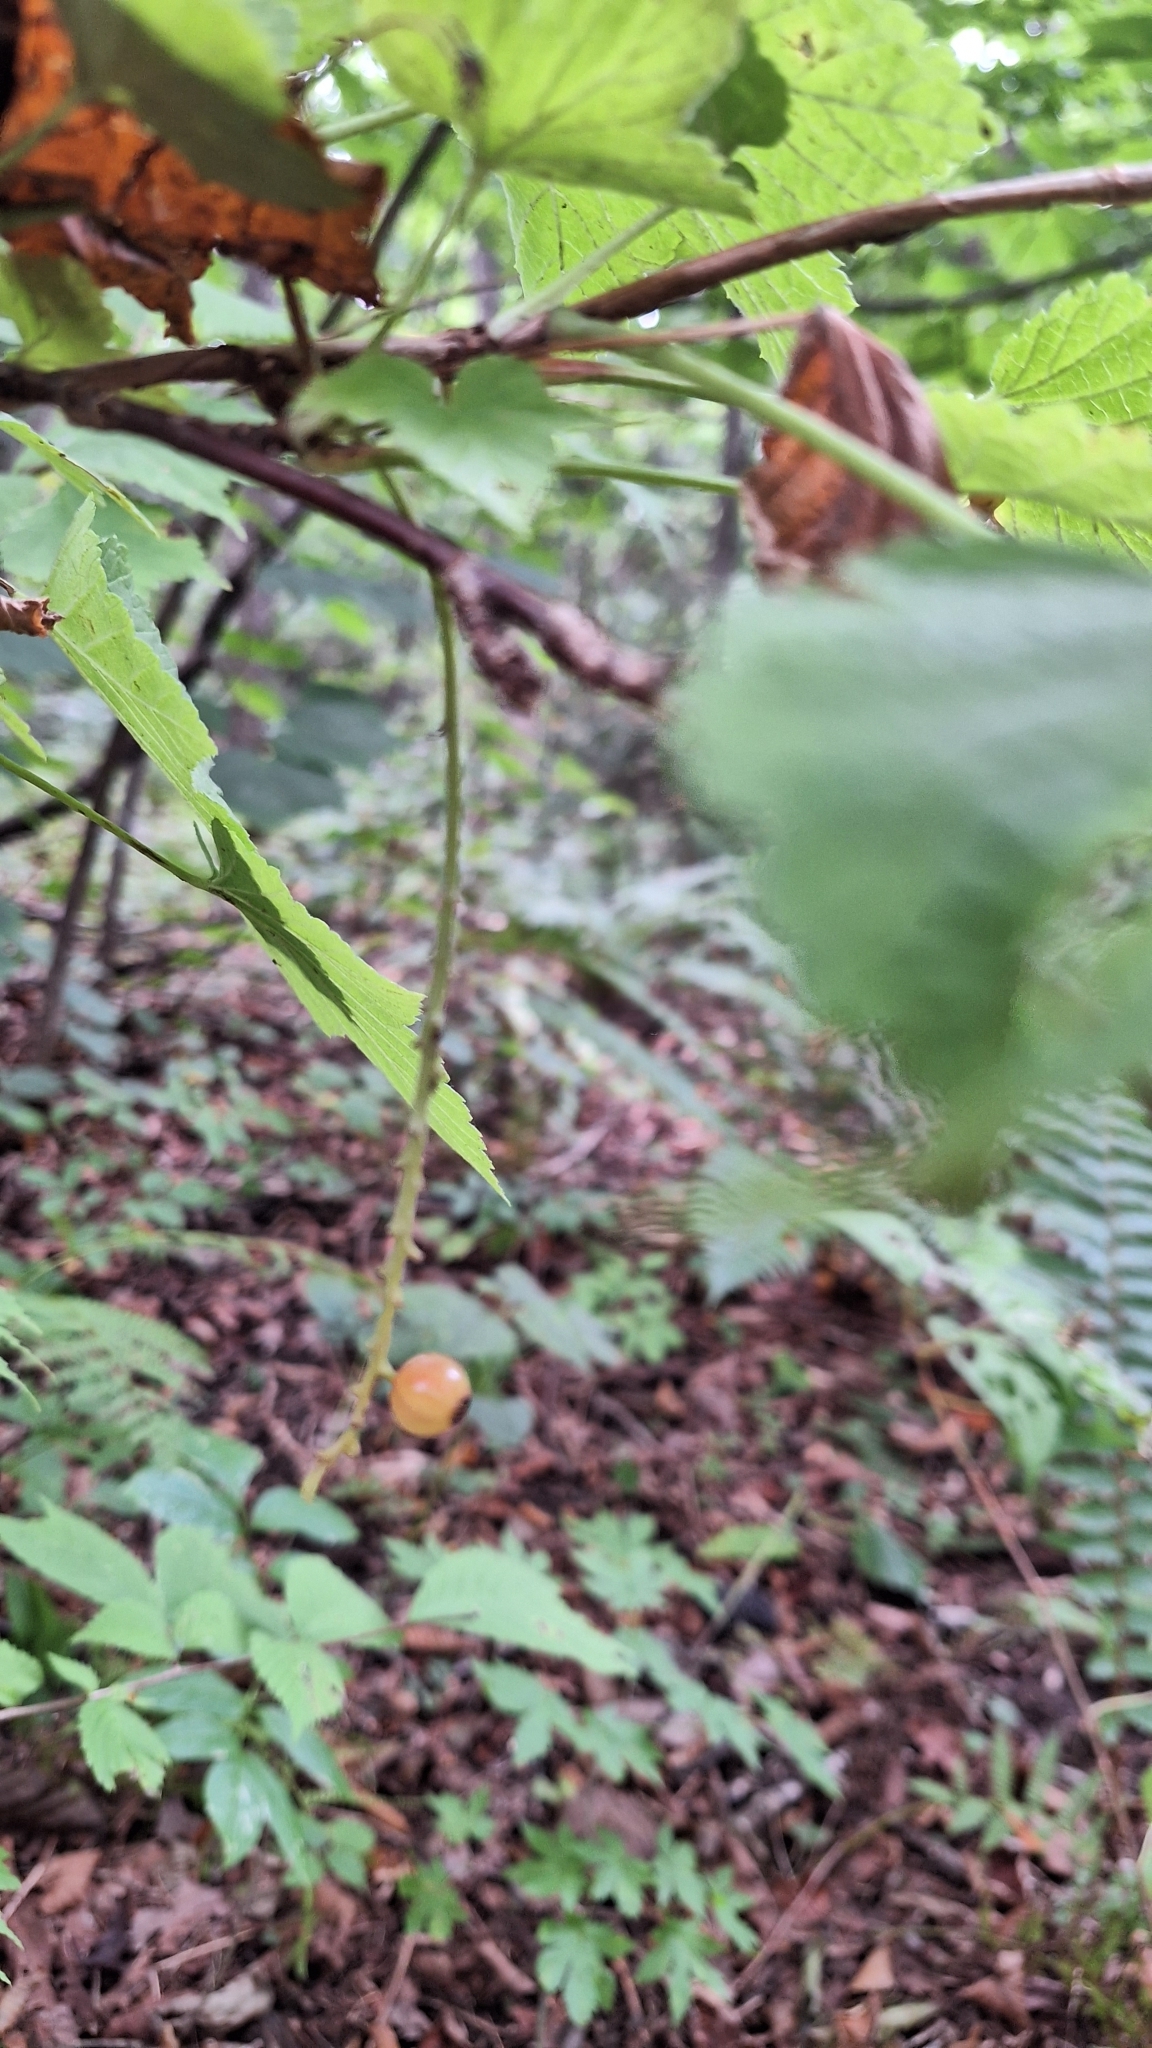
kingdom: Plantae
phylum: Tracheophyta
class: Magnoliopsida
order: Saxifragales
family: Grossulariaceae
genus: Ribes
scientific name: Ribes mandshuricum
